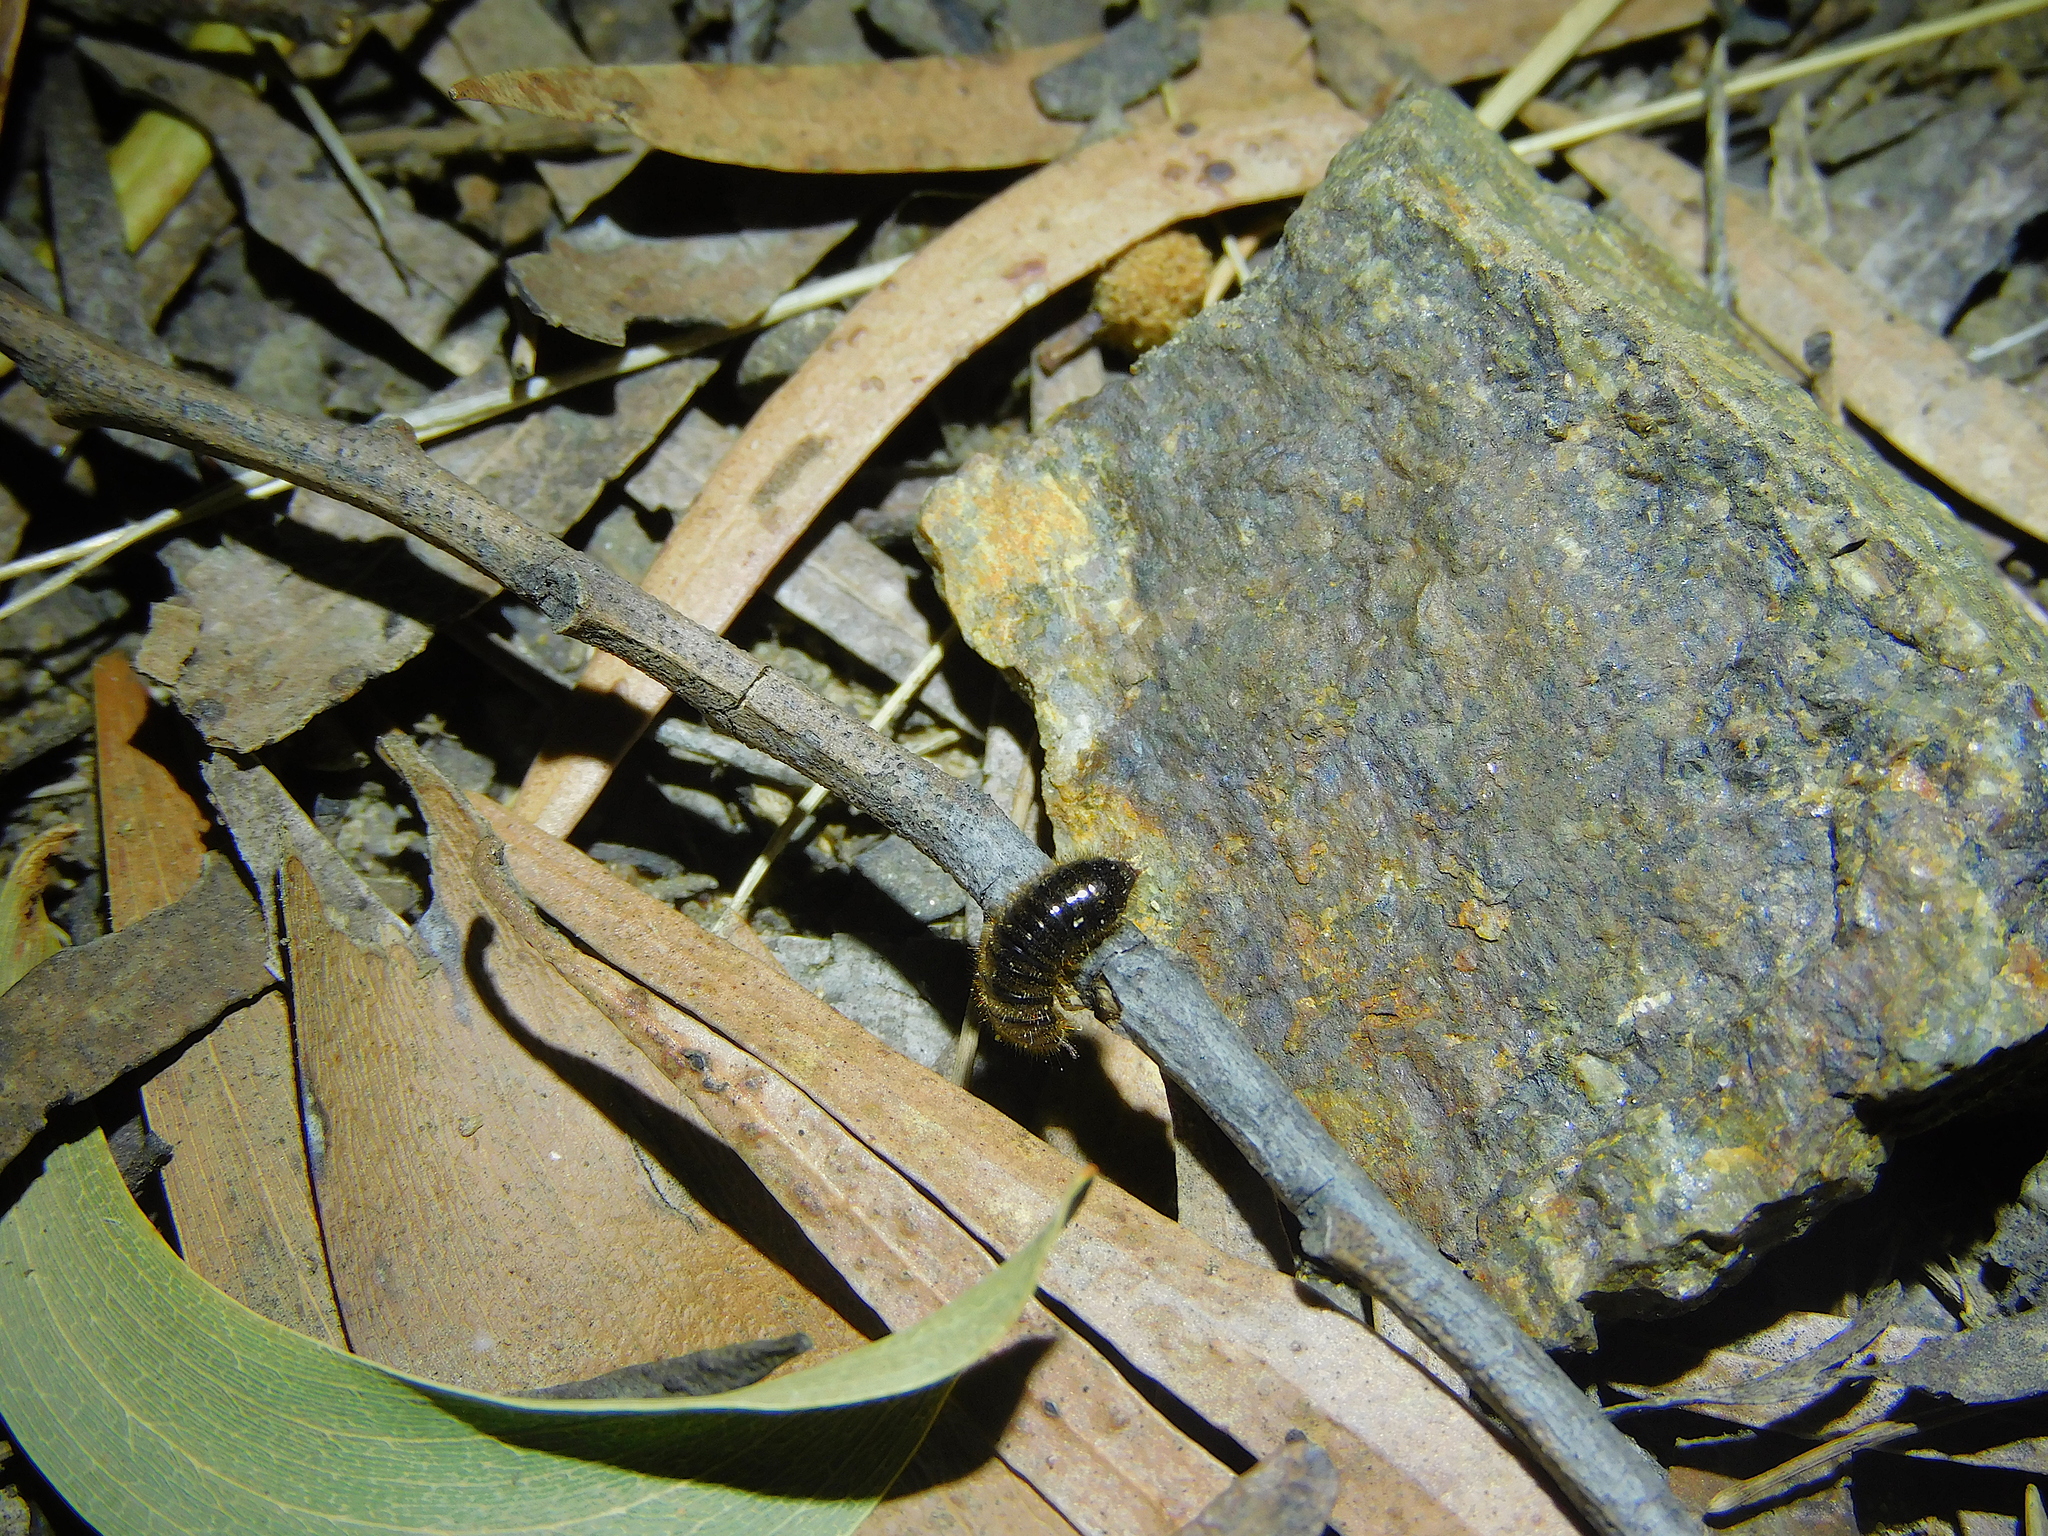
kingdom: Animalia
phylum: Arthropoda
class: Insecta
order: Coleoptera
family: Tenebrionidae
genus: Ecnolagria
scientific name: Ecnolagria
